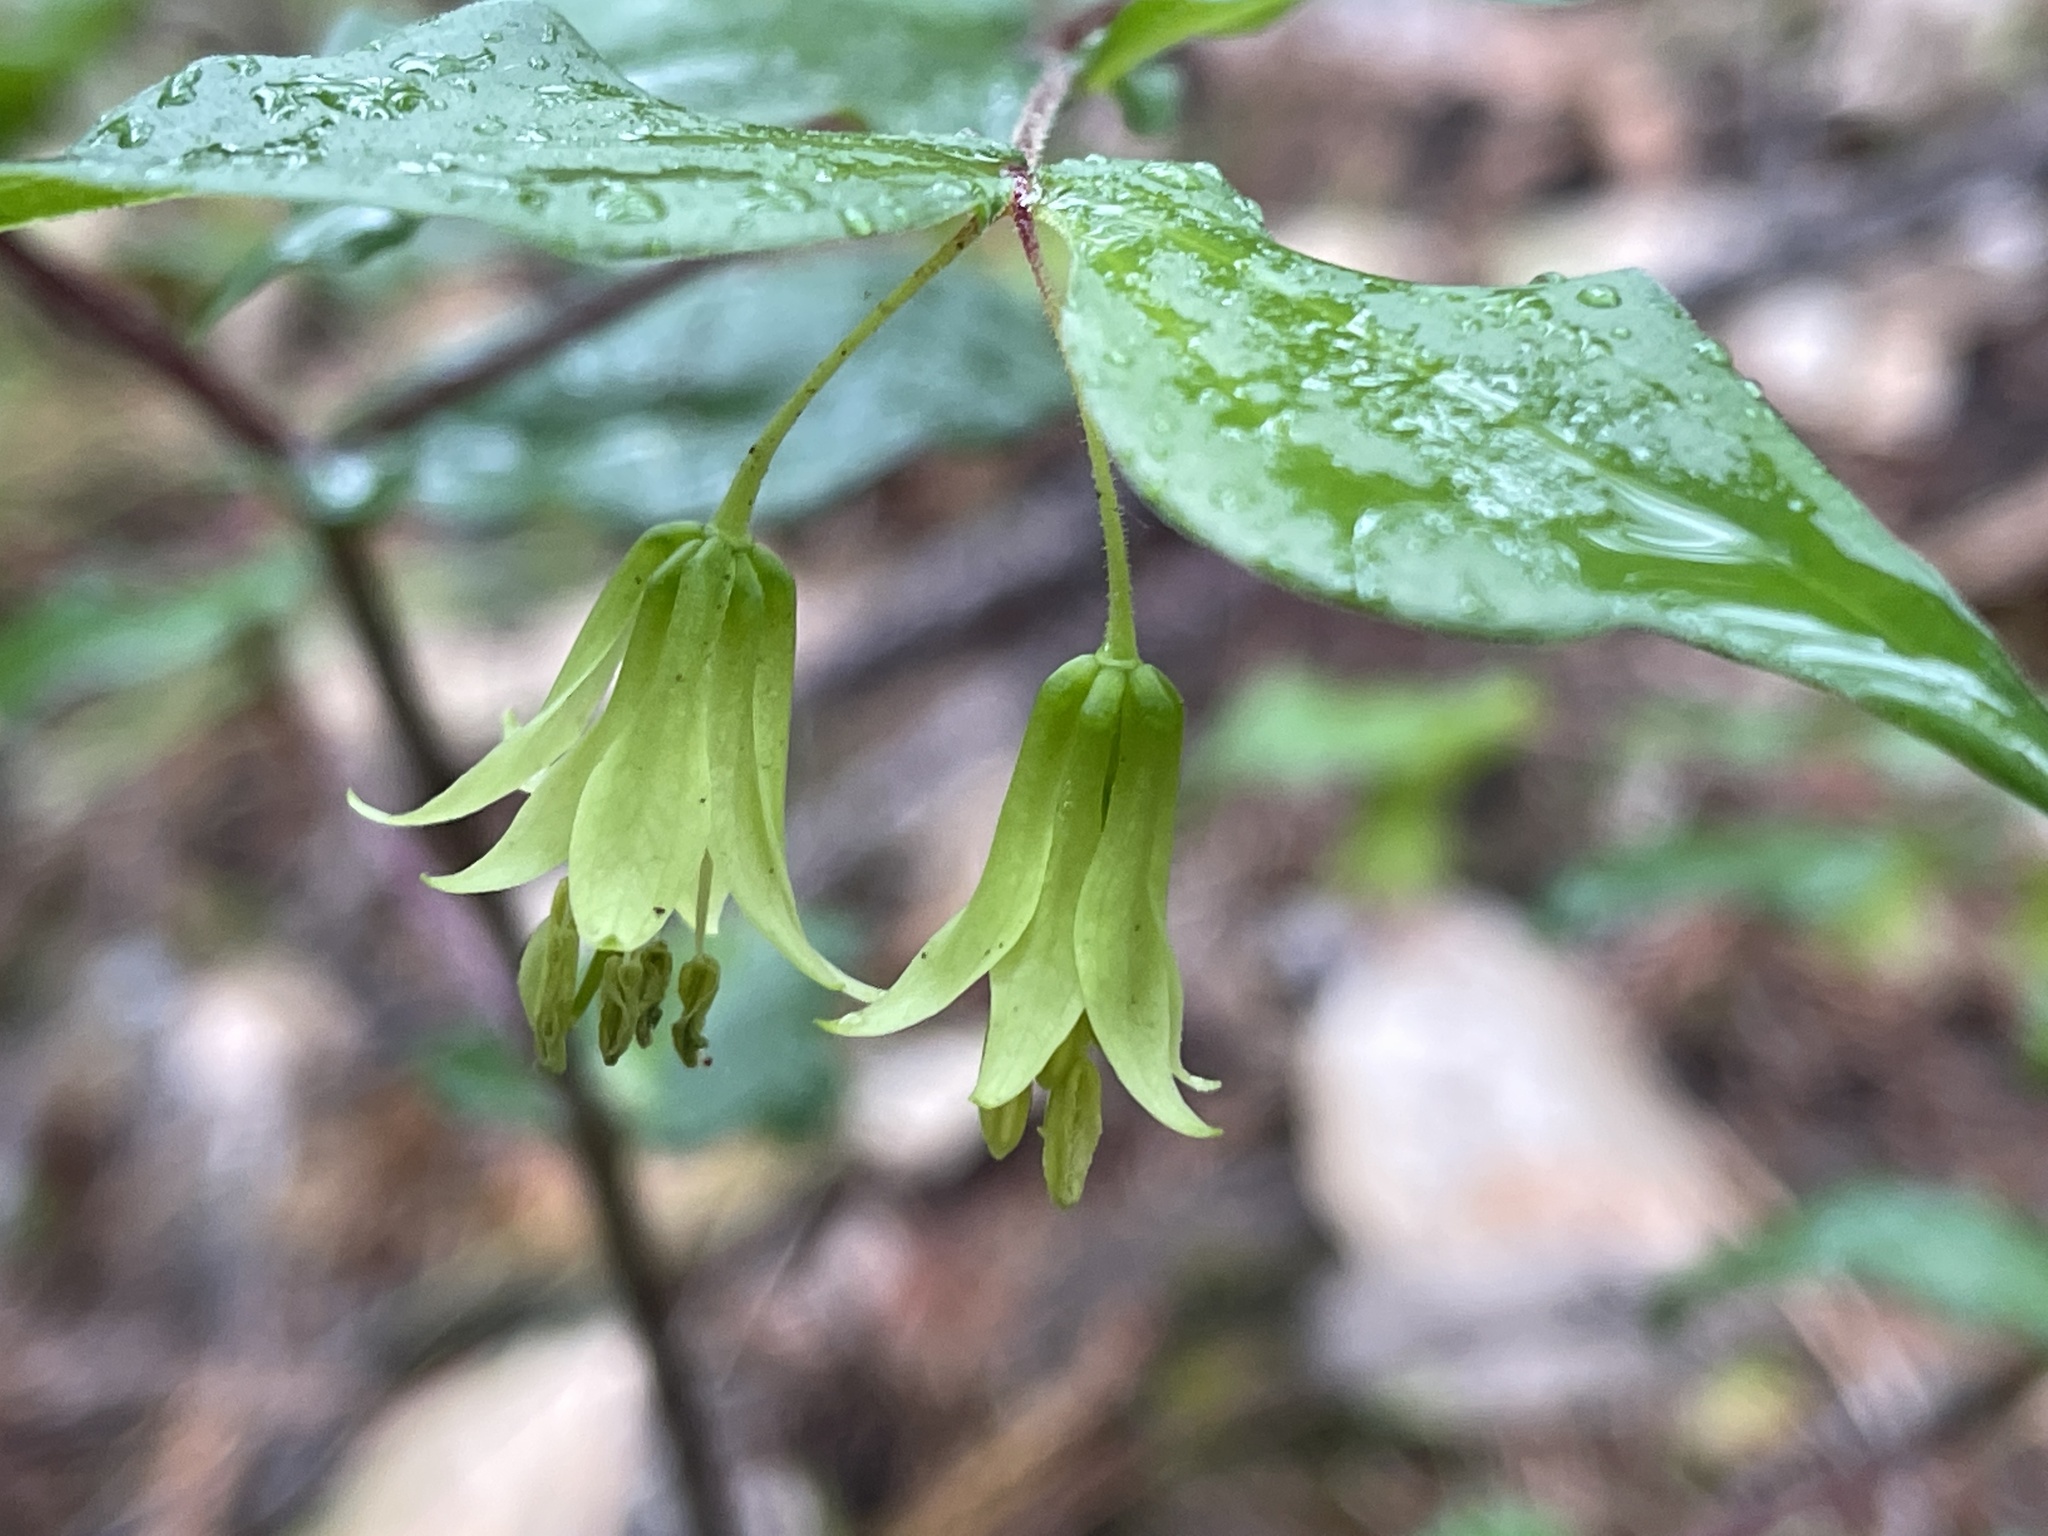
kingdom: Plantae
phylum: Tracheophyta
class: Liliopsida
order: Liliales
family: Liliaceae
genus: Prosartes
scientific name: Prosartes hookeri
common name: Fairy-bells
